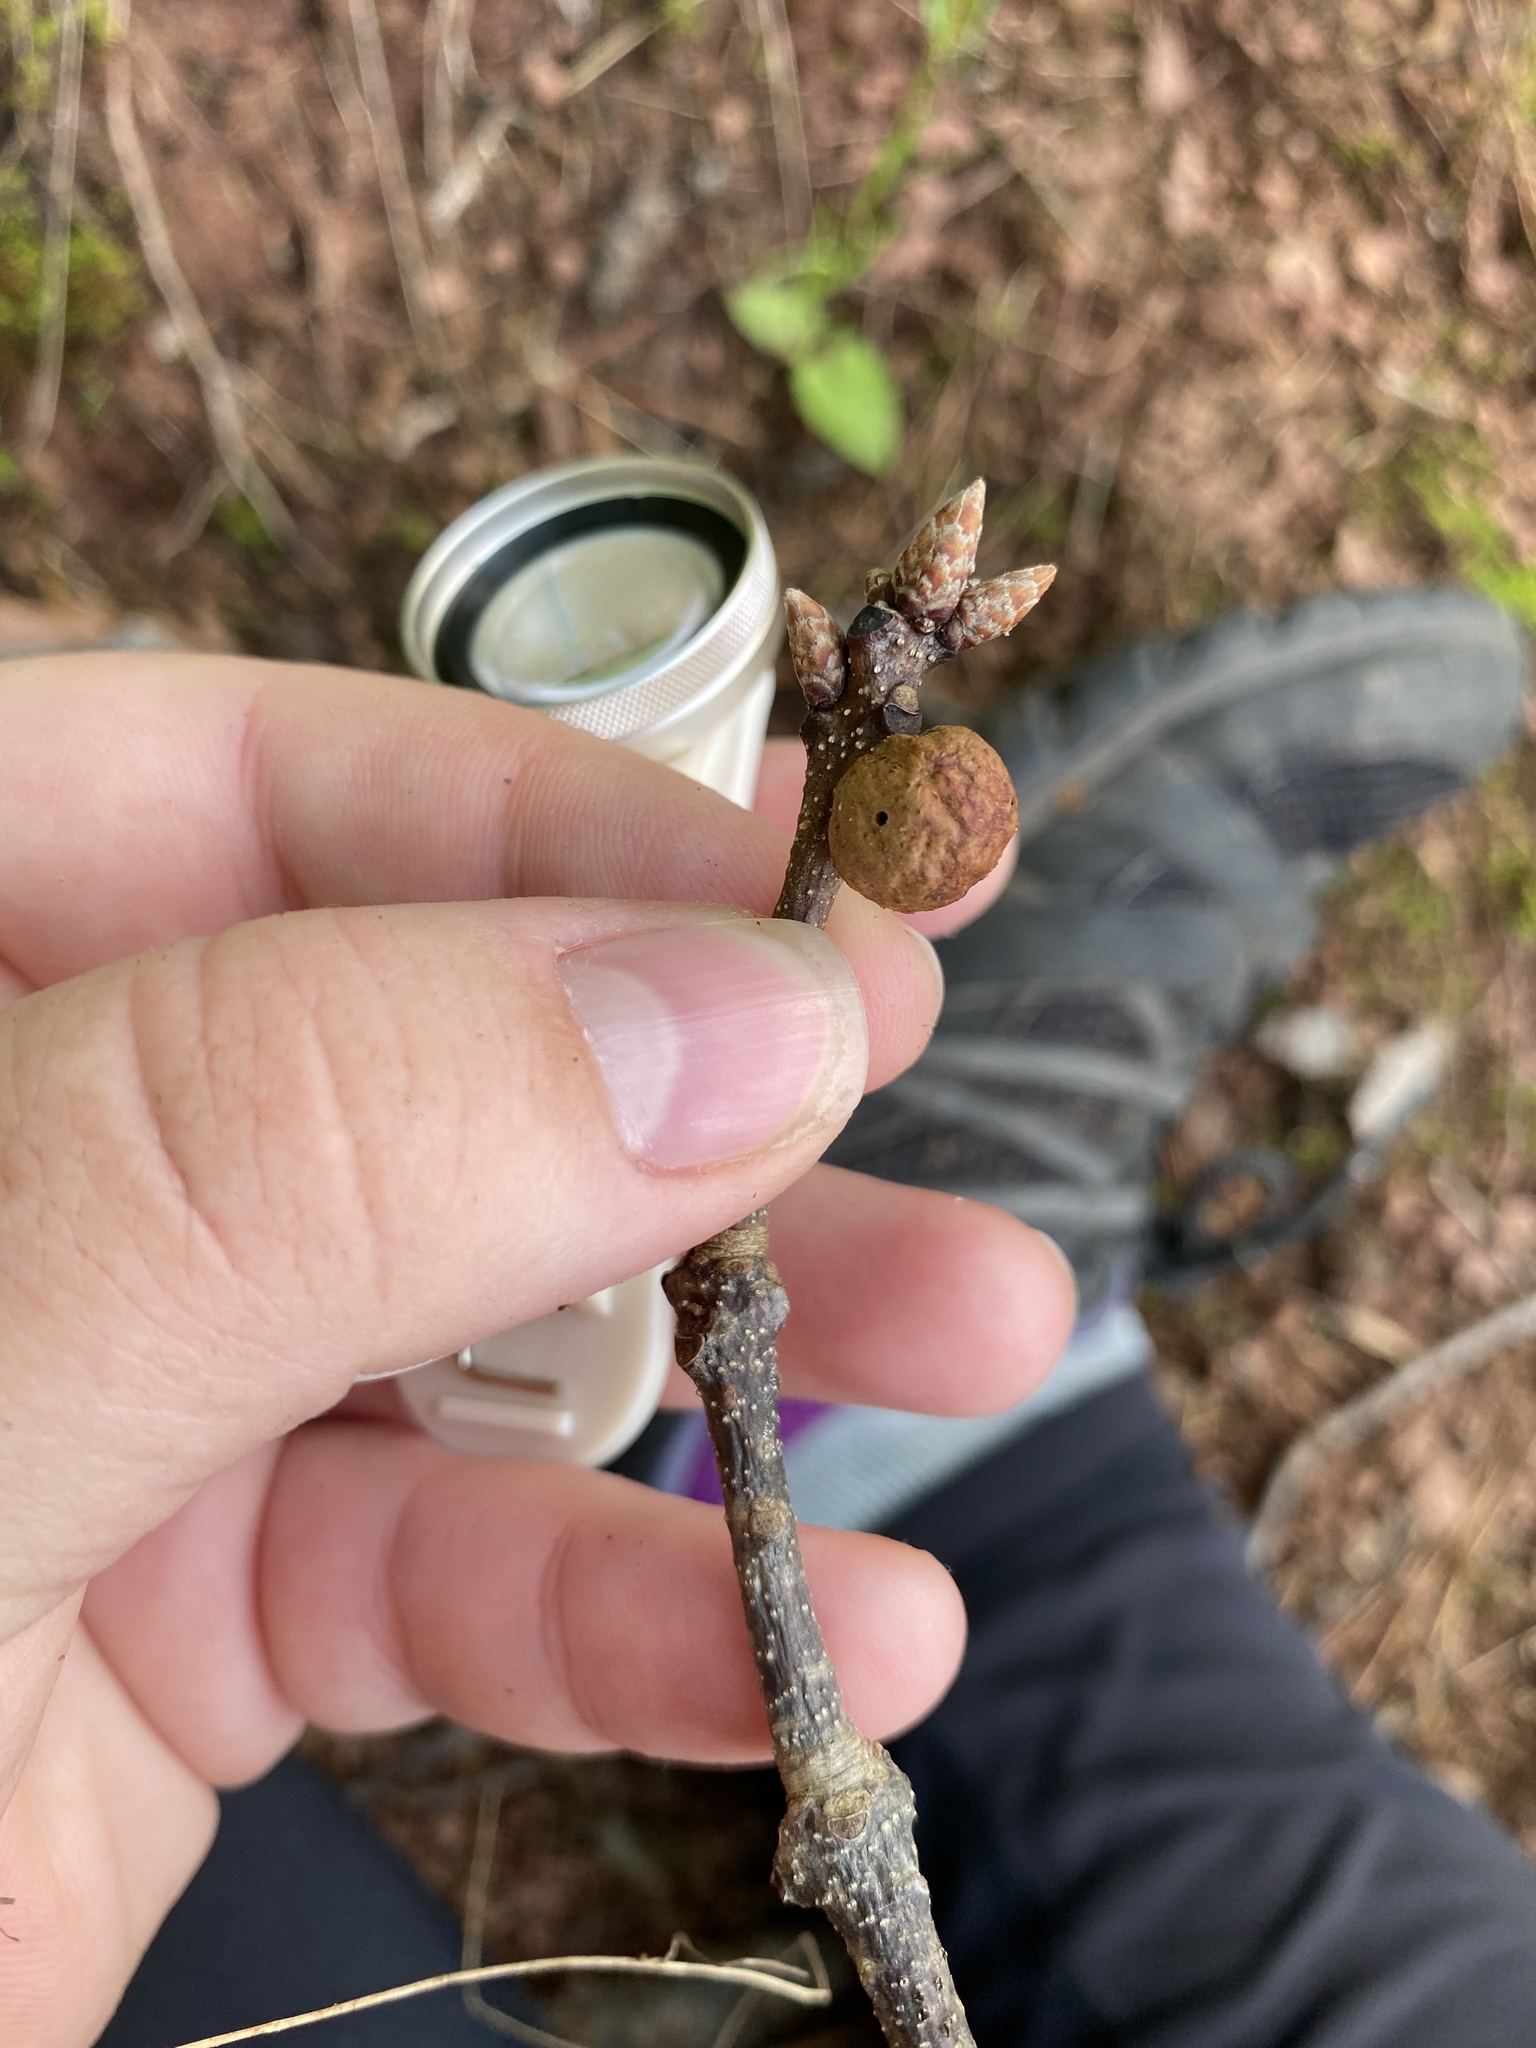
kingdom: Animalia
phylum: Arthropoda
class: Insecta
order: Hymenoptera
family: Cynipidae
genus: Disholcaspis
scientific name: Disholcaspis quercusglobulus
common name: Round bullet gall wasp
